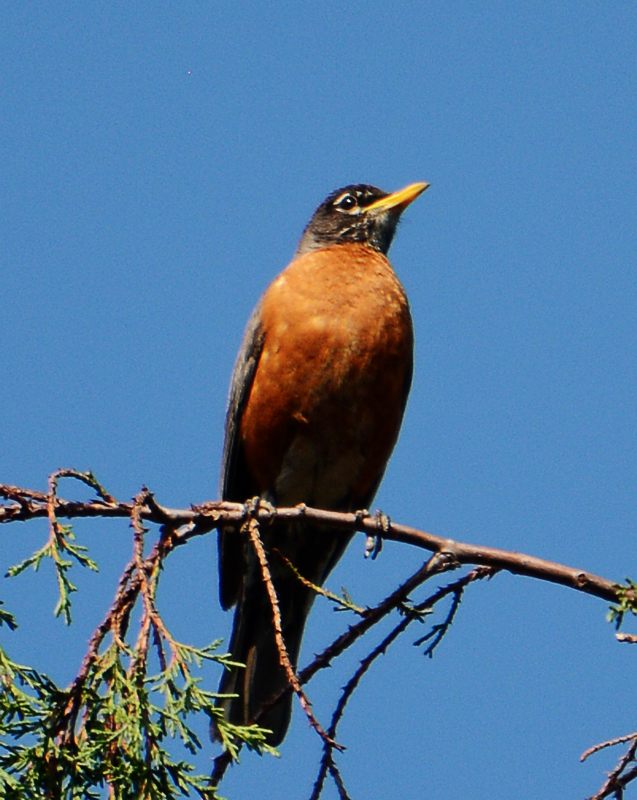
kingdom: Animalia
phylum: Chordata
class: Aves
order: Passeriformes
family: Turdidae
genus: Turdus
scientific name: Turdus migratorius
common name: American robin
